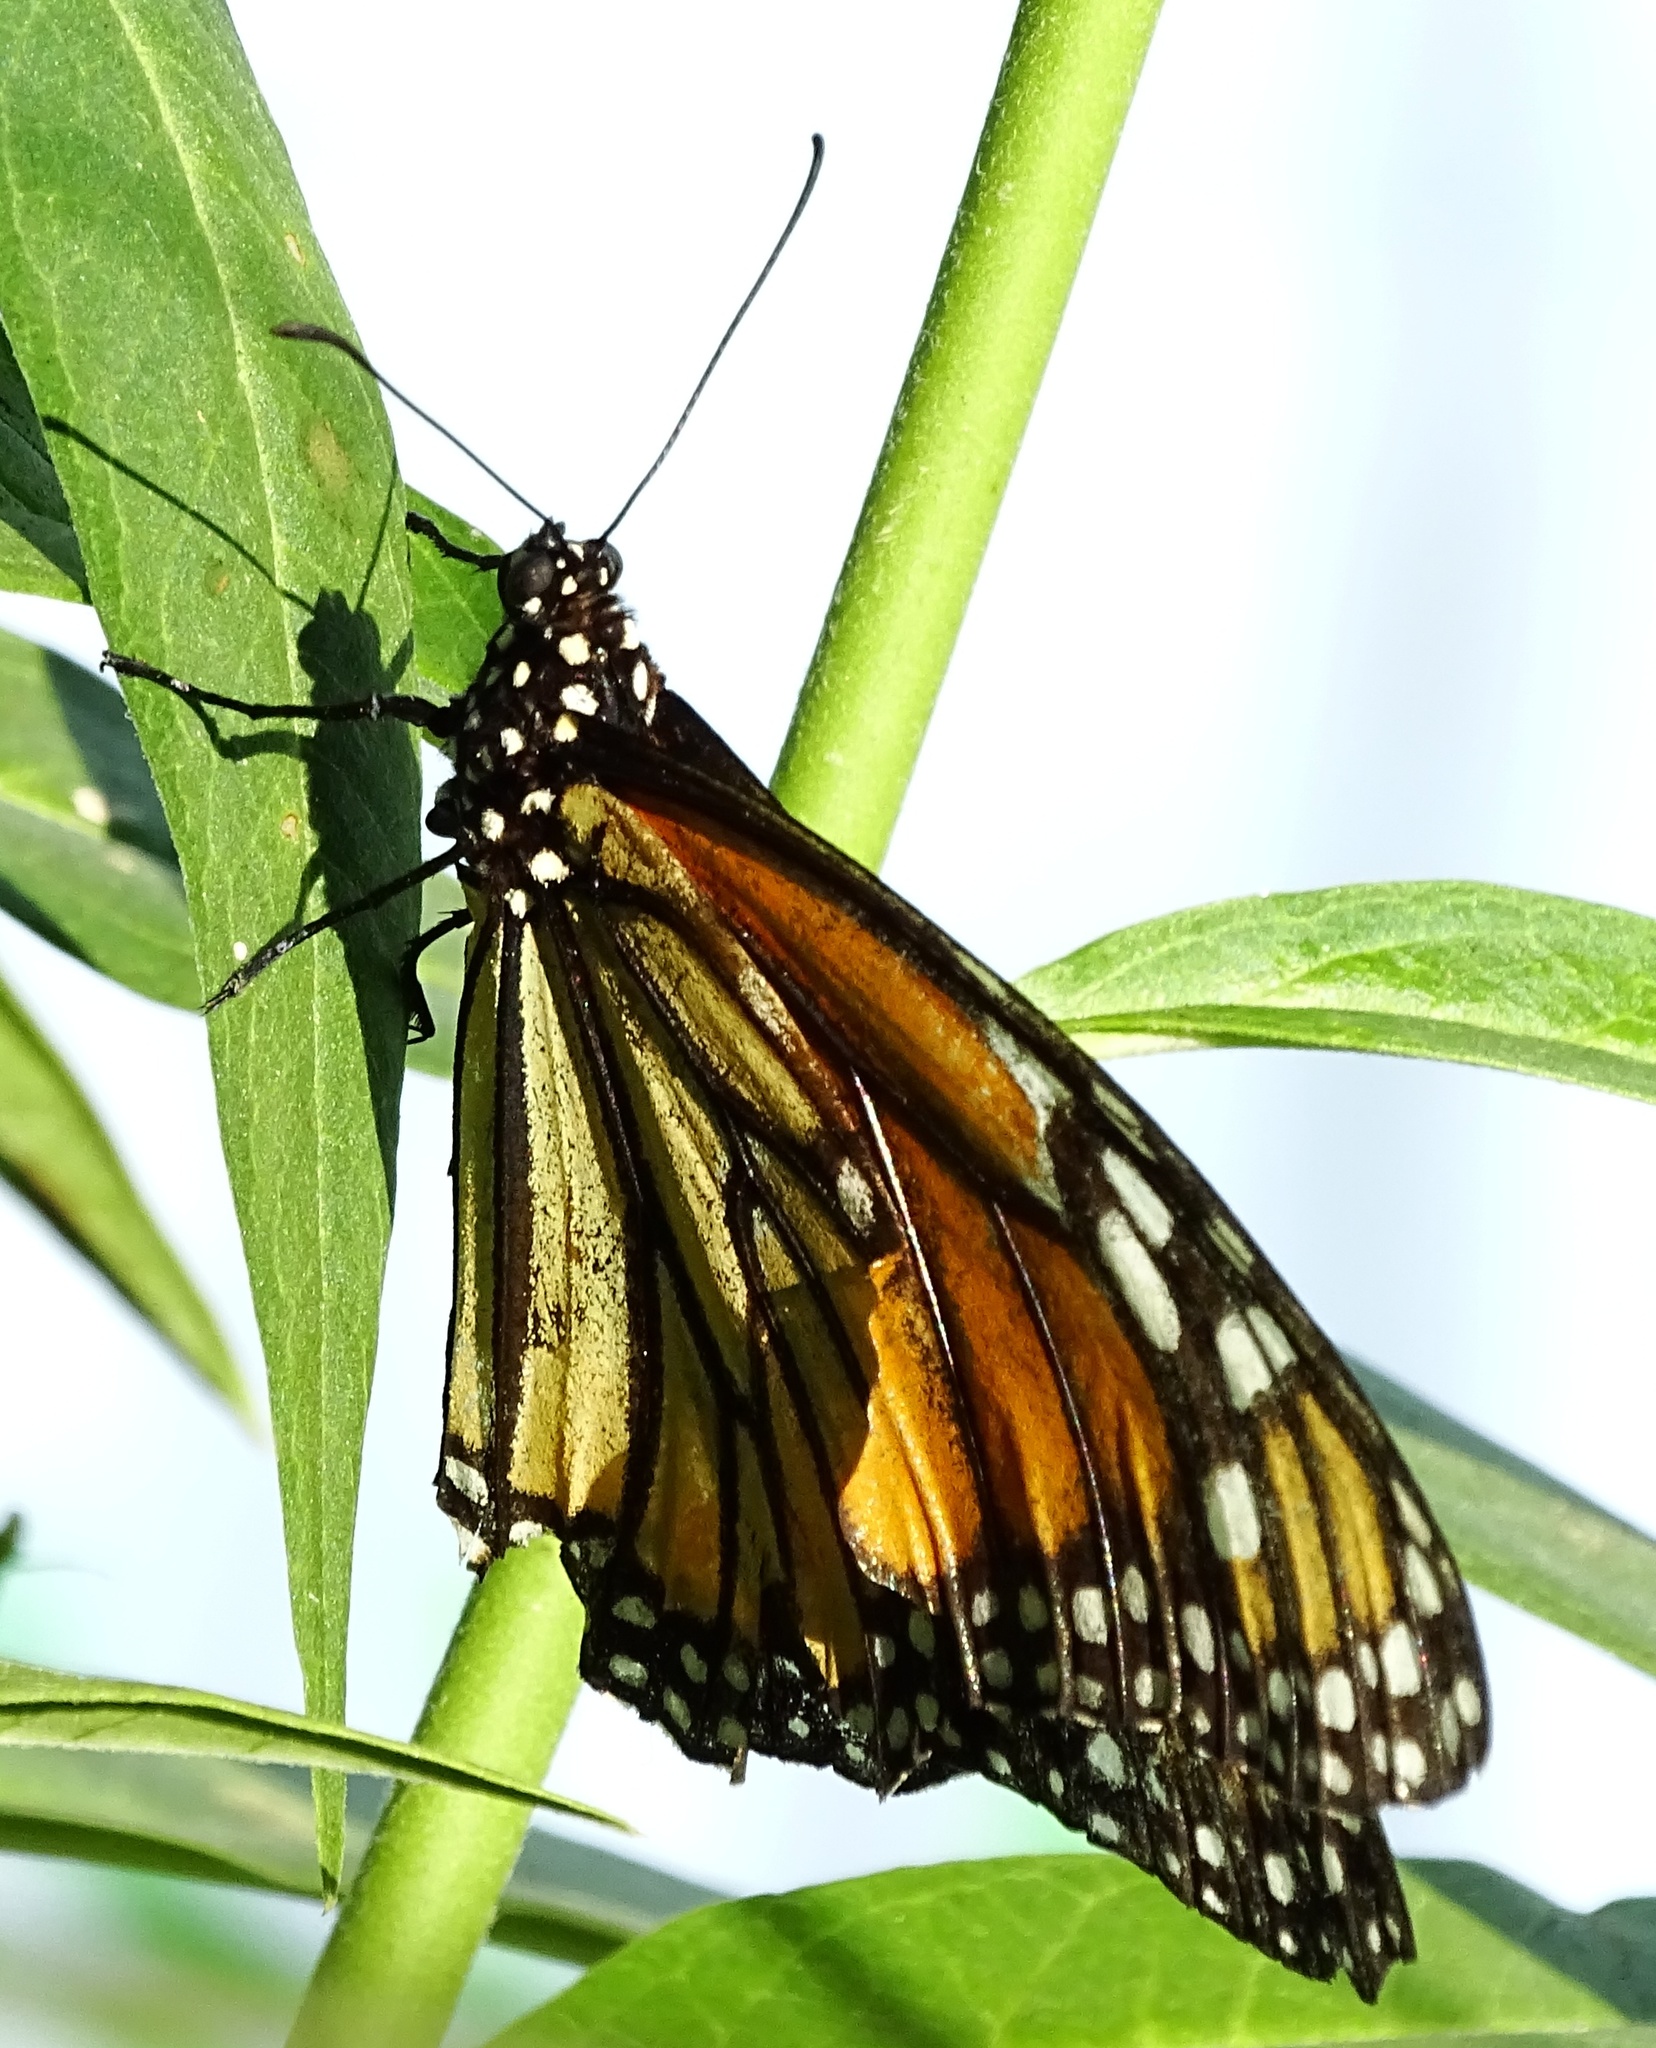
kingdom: Animalia
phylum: Arthropoda
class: Insecta
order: Lepidoptera
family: Nymphalidae
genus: Danaus
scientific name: Danaus plexippus
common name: Monarch
